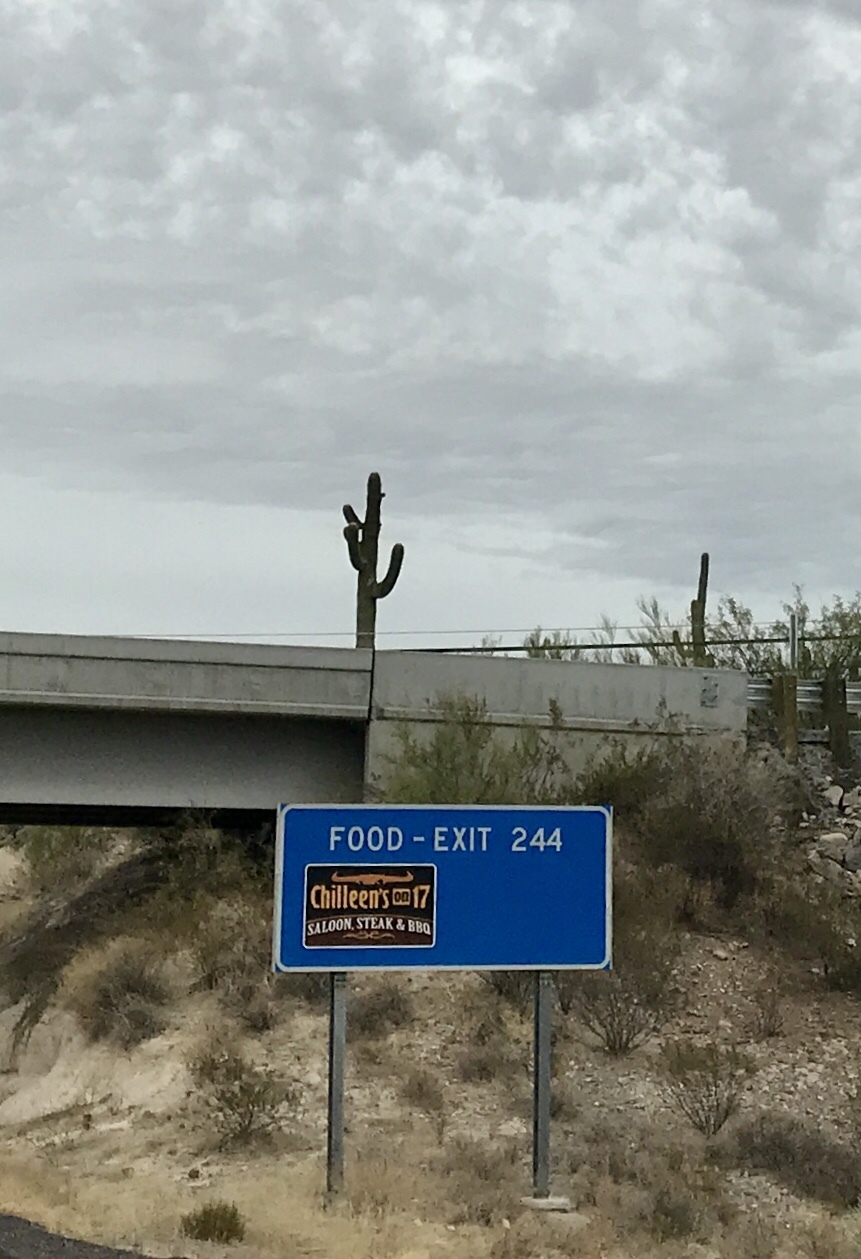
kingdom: Plantae
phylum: Tracheophyta
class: Magnoliopsida
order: Caryophyllales
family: Cactaceae
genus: Carnegiea
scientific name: Carnegiea gigantea
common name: Saguaro
